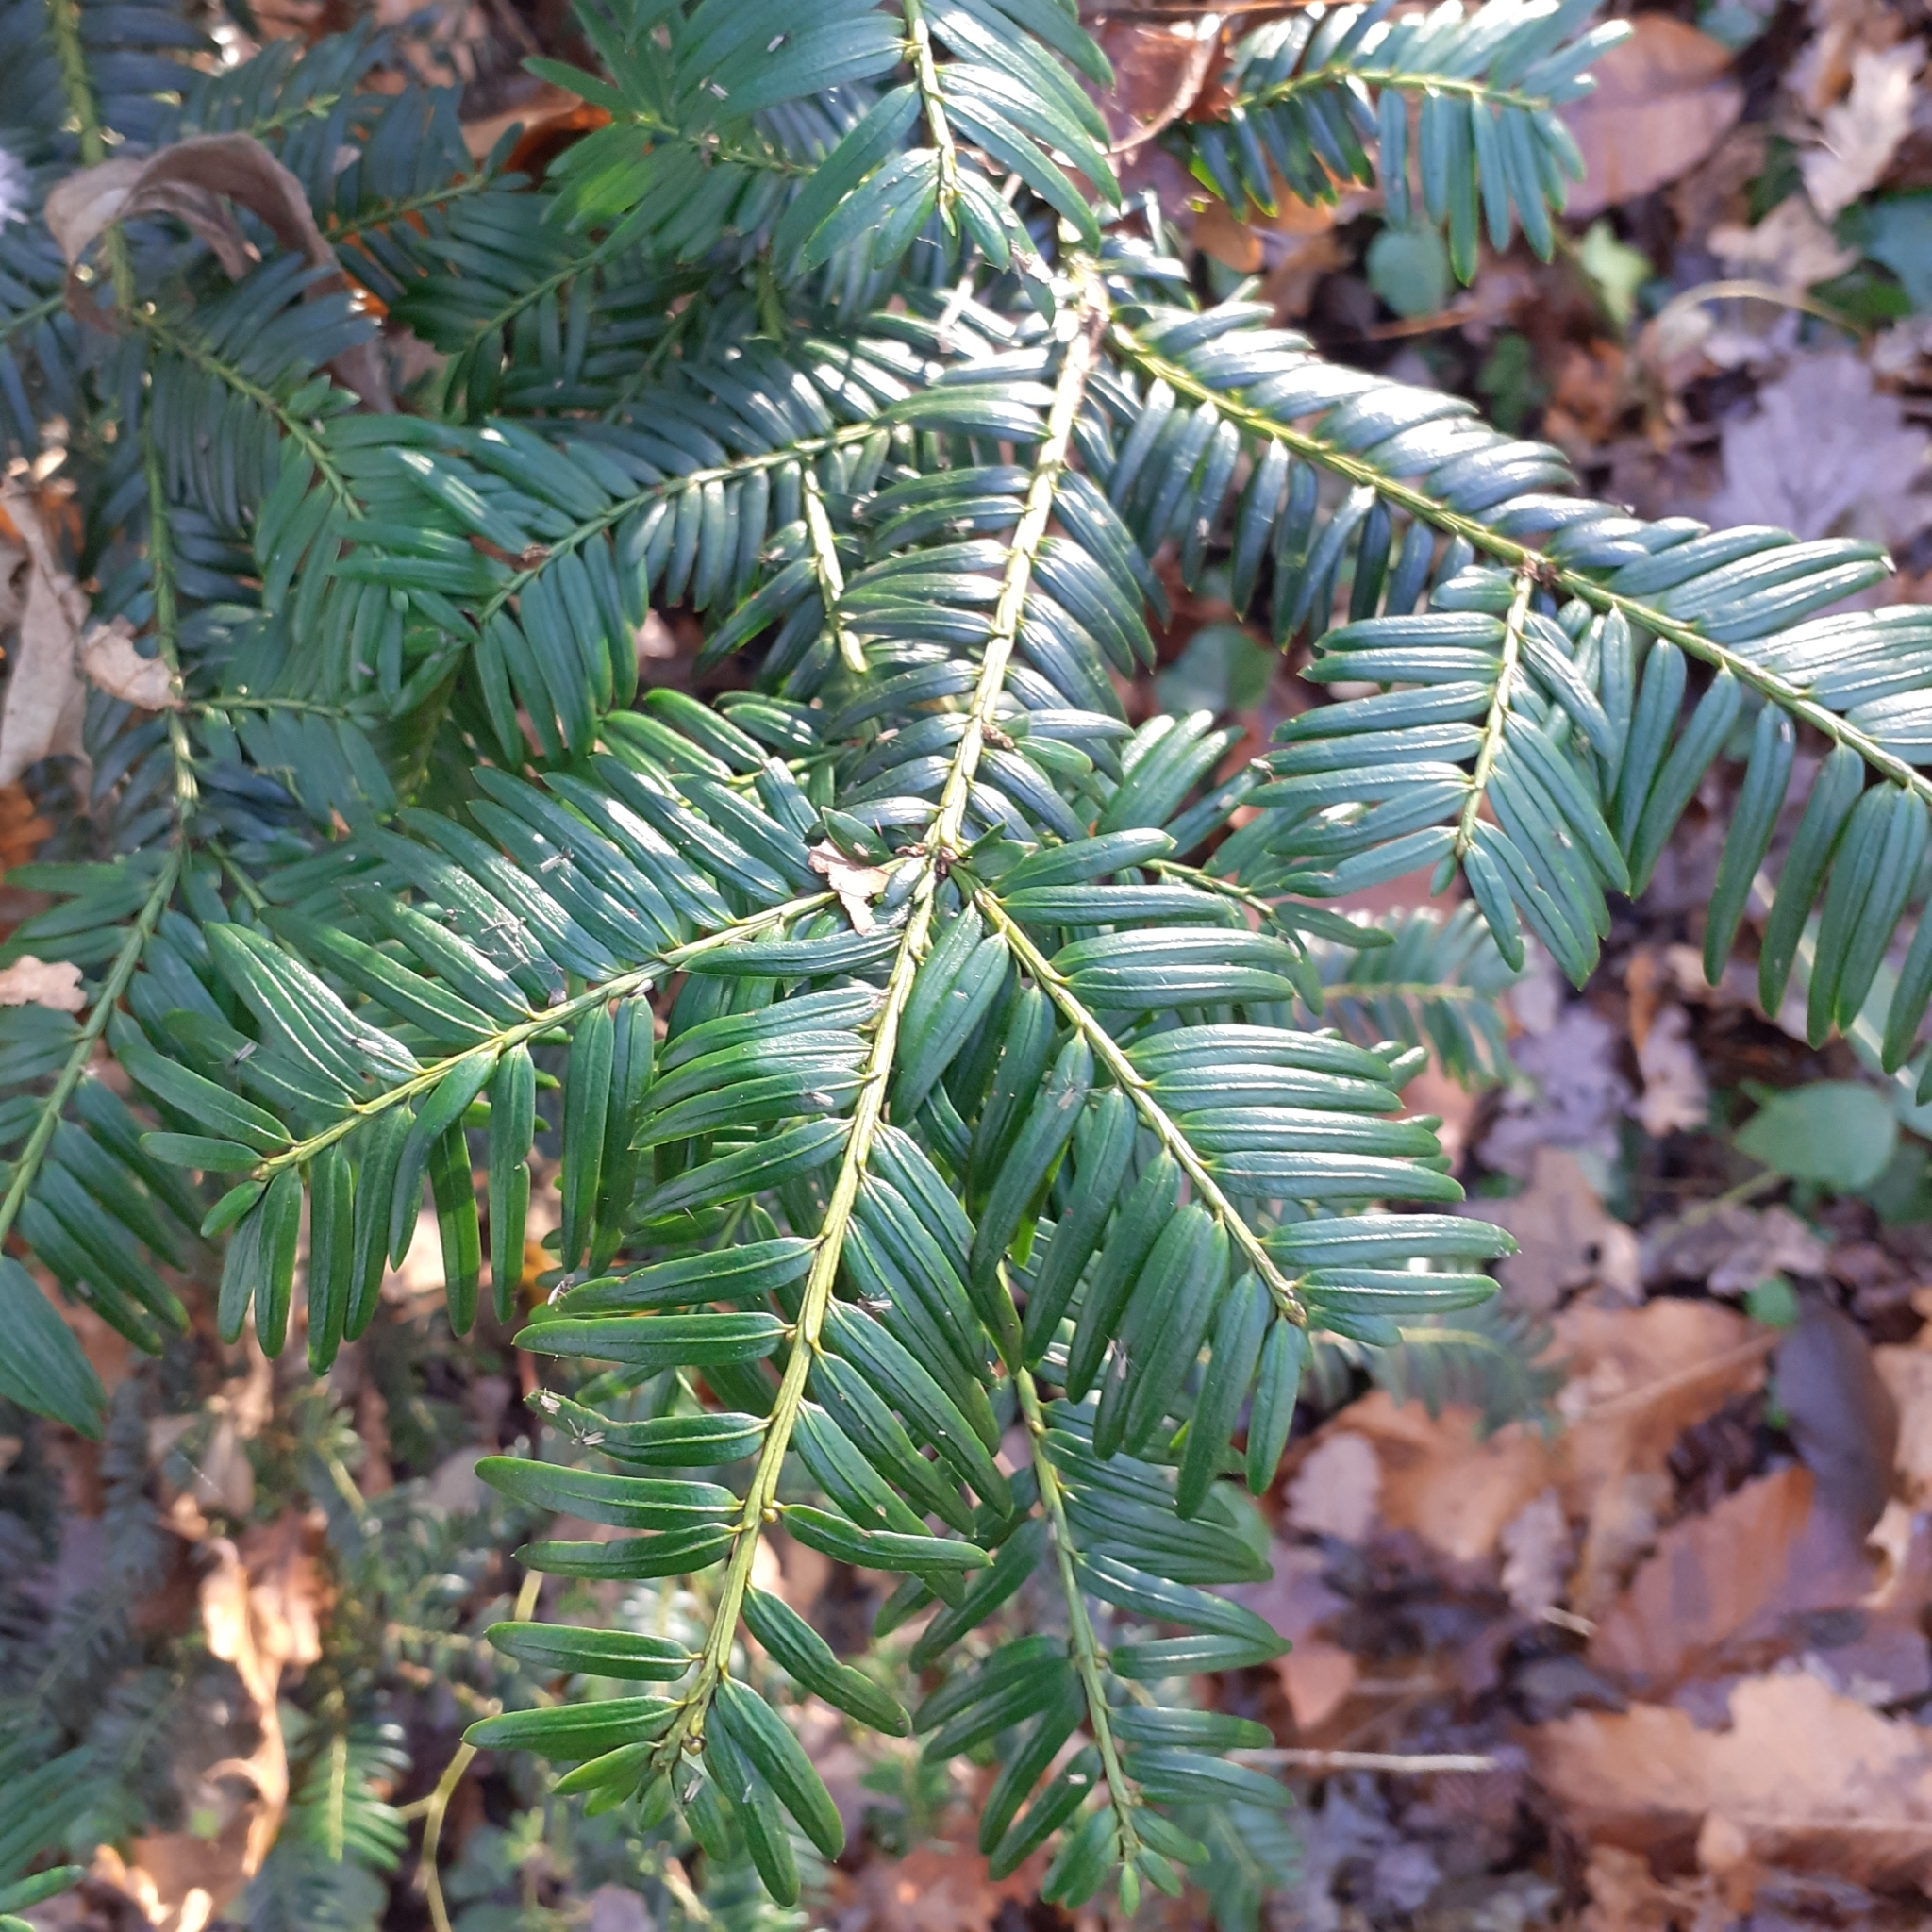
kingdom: Plantae
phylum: Tracheophyta
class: Pinopsida
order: Pinales
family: Taxaceae
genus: Taxus
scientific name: Taxus baccata
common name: Yew
